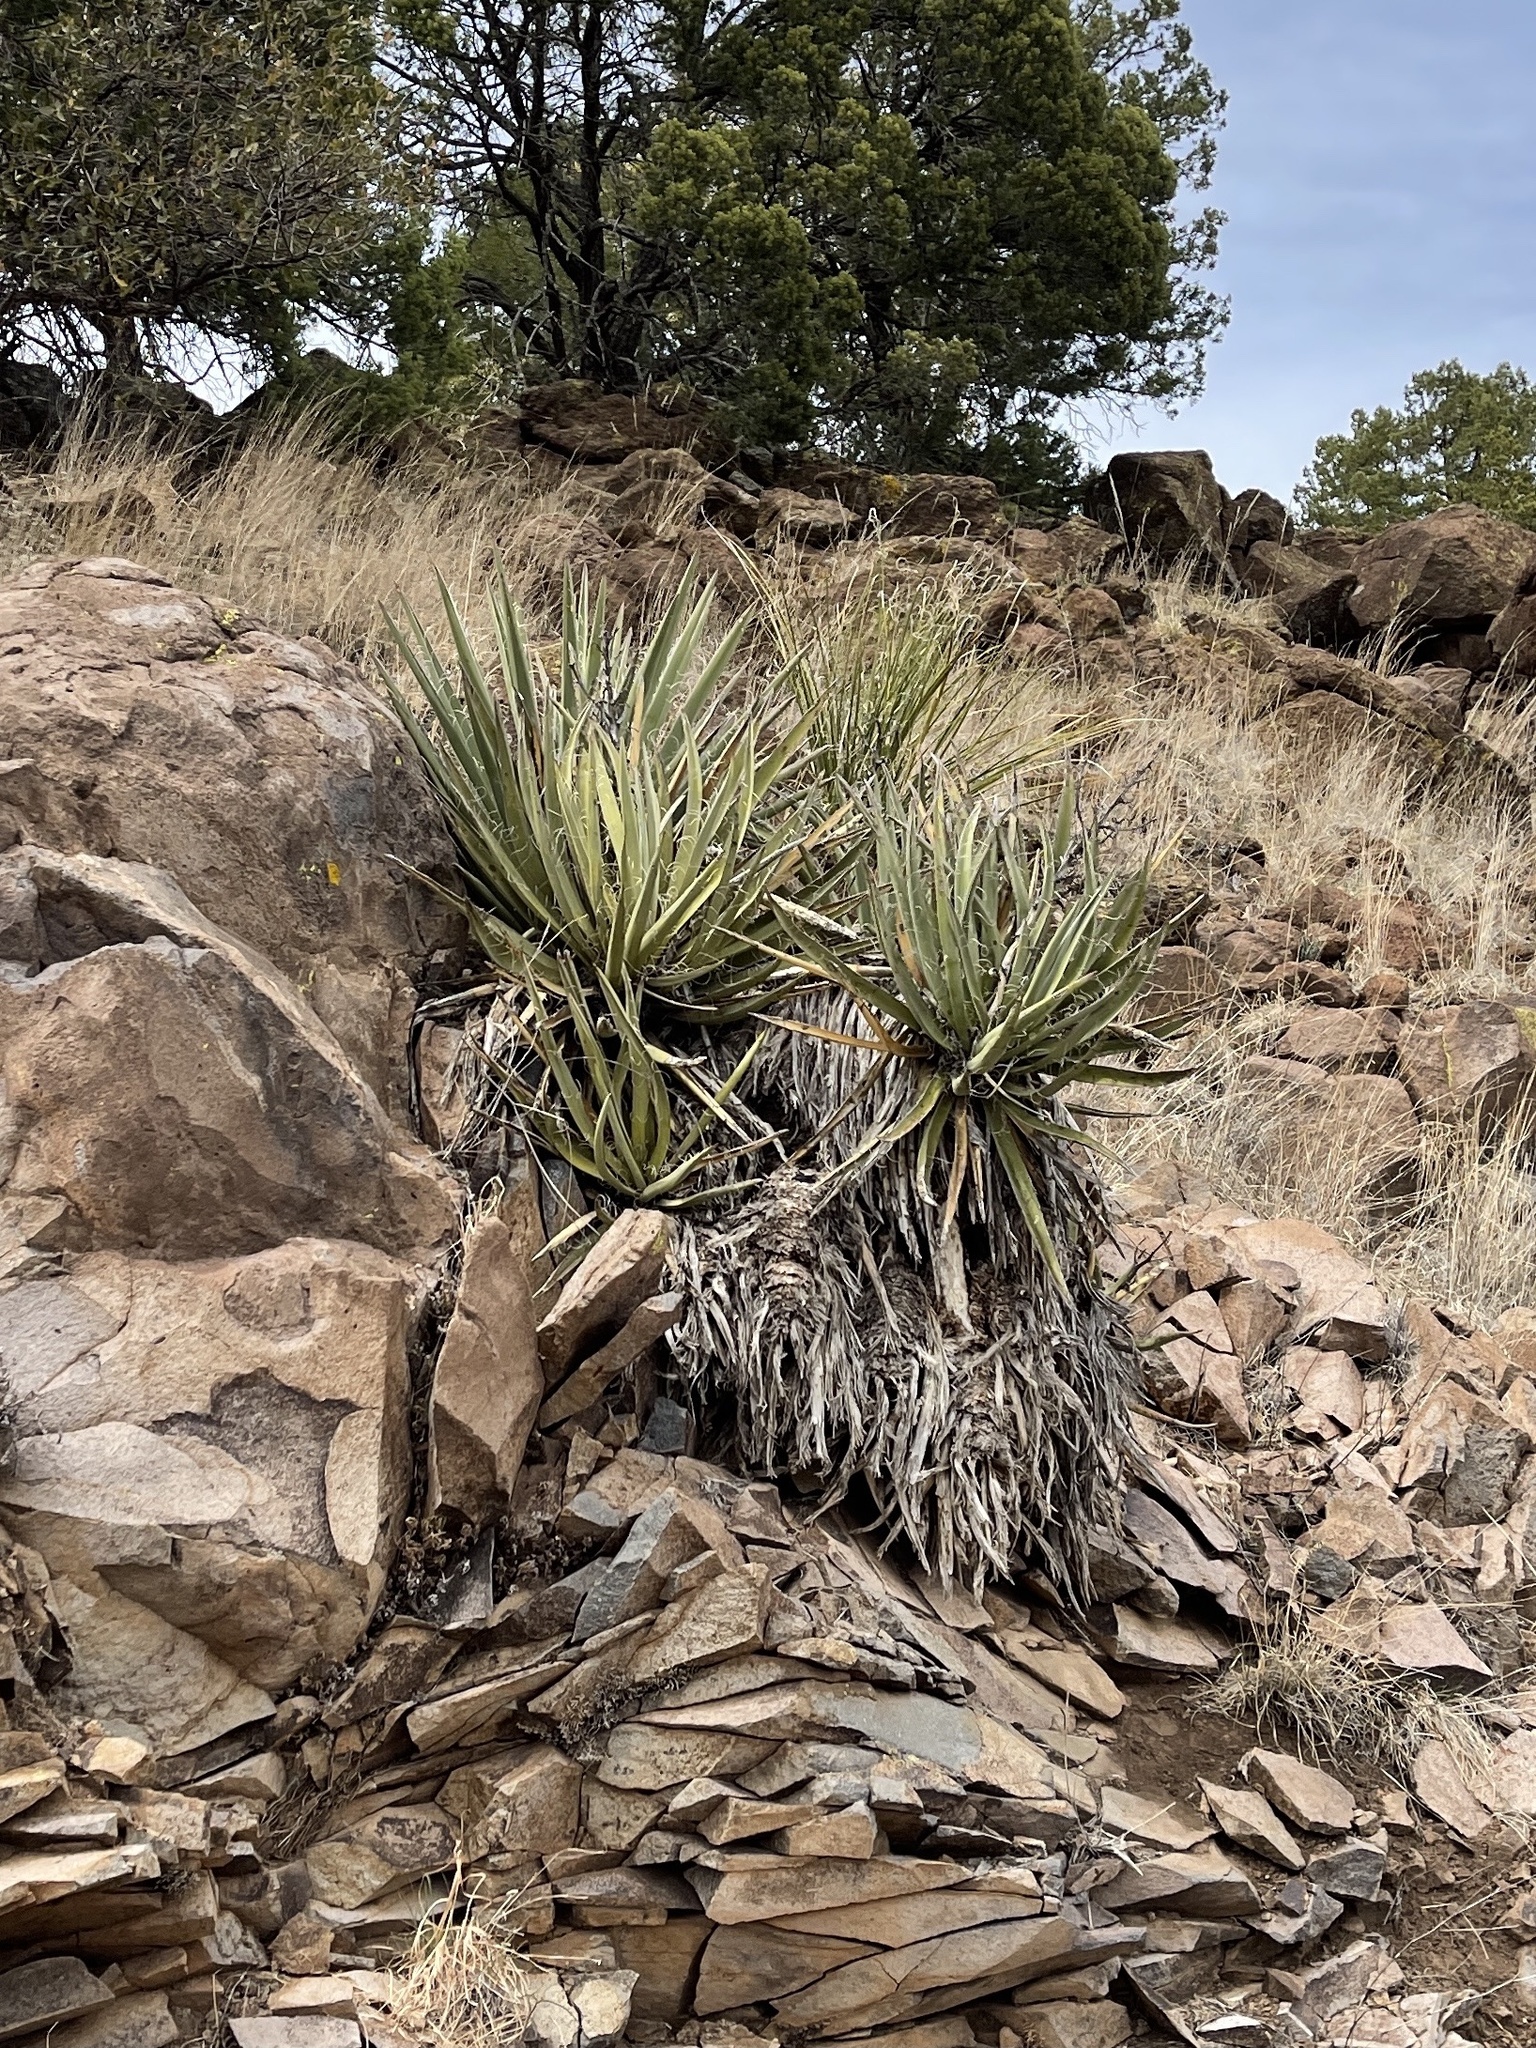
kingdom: Plantae
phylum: Tracheophyta
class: Liliopsida
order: Asparagales
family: Asparagaceae
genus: Yucca
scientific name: Yucca baccata
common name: Banana yucca
